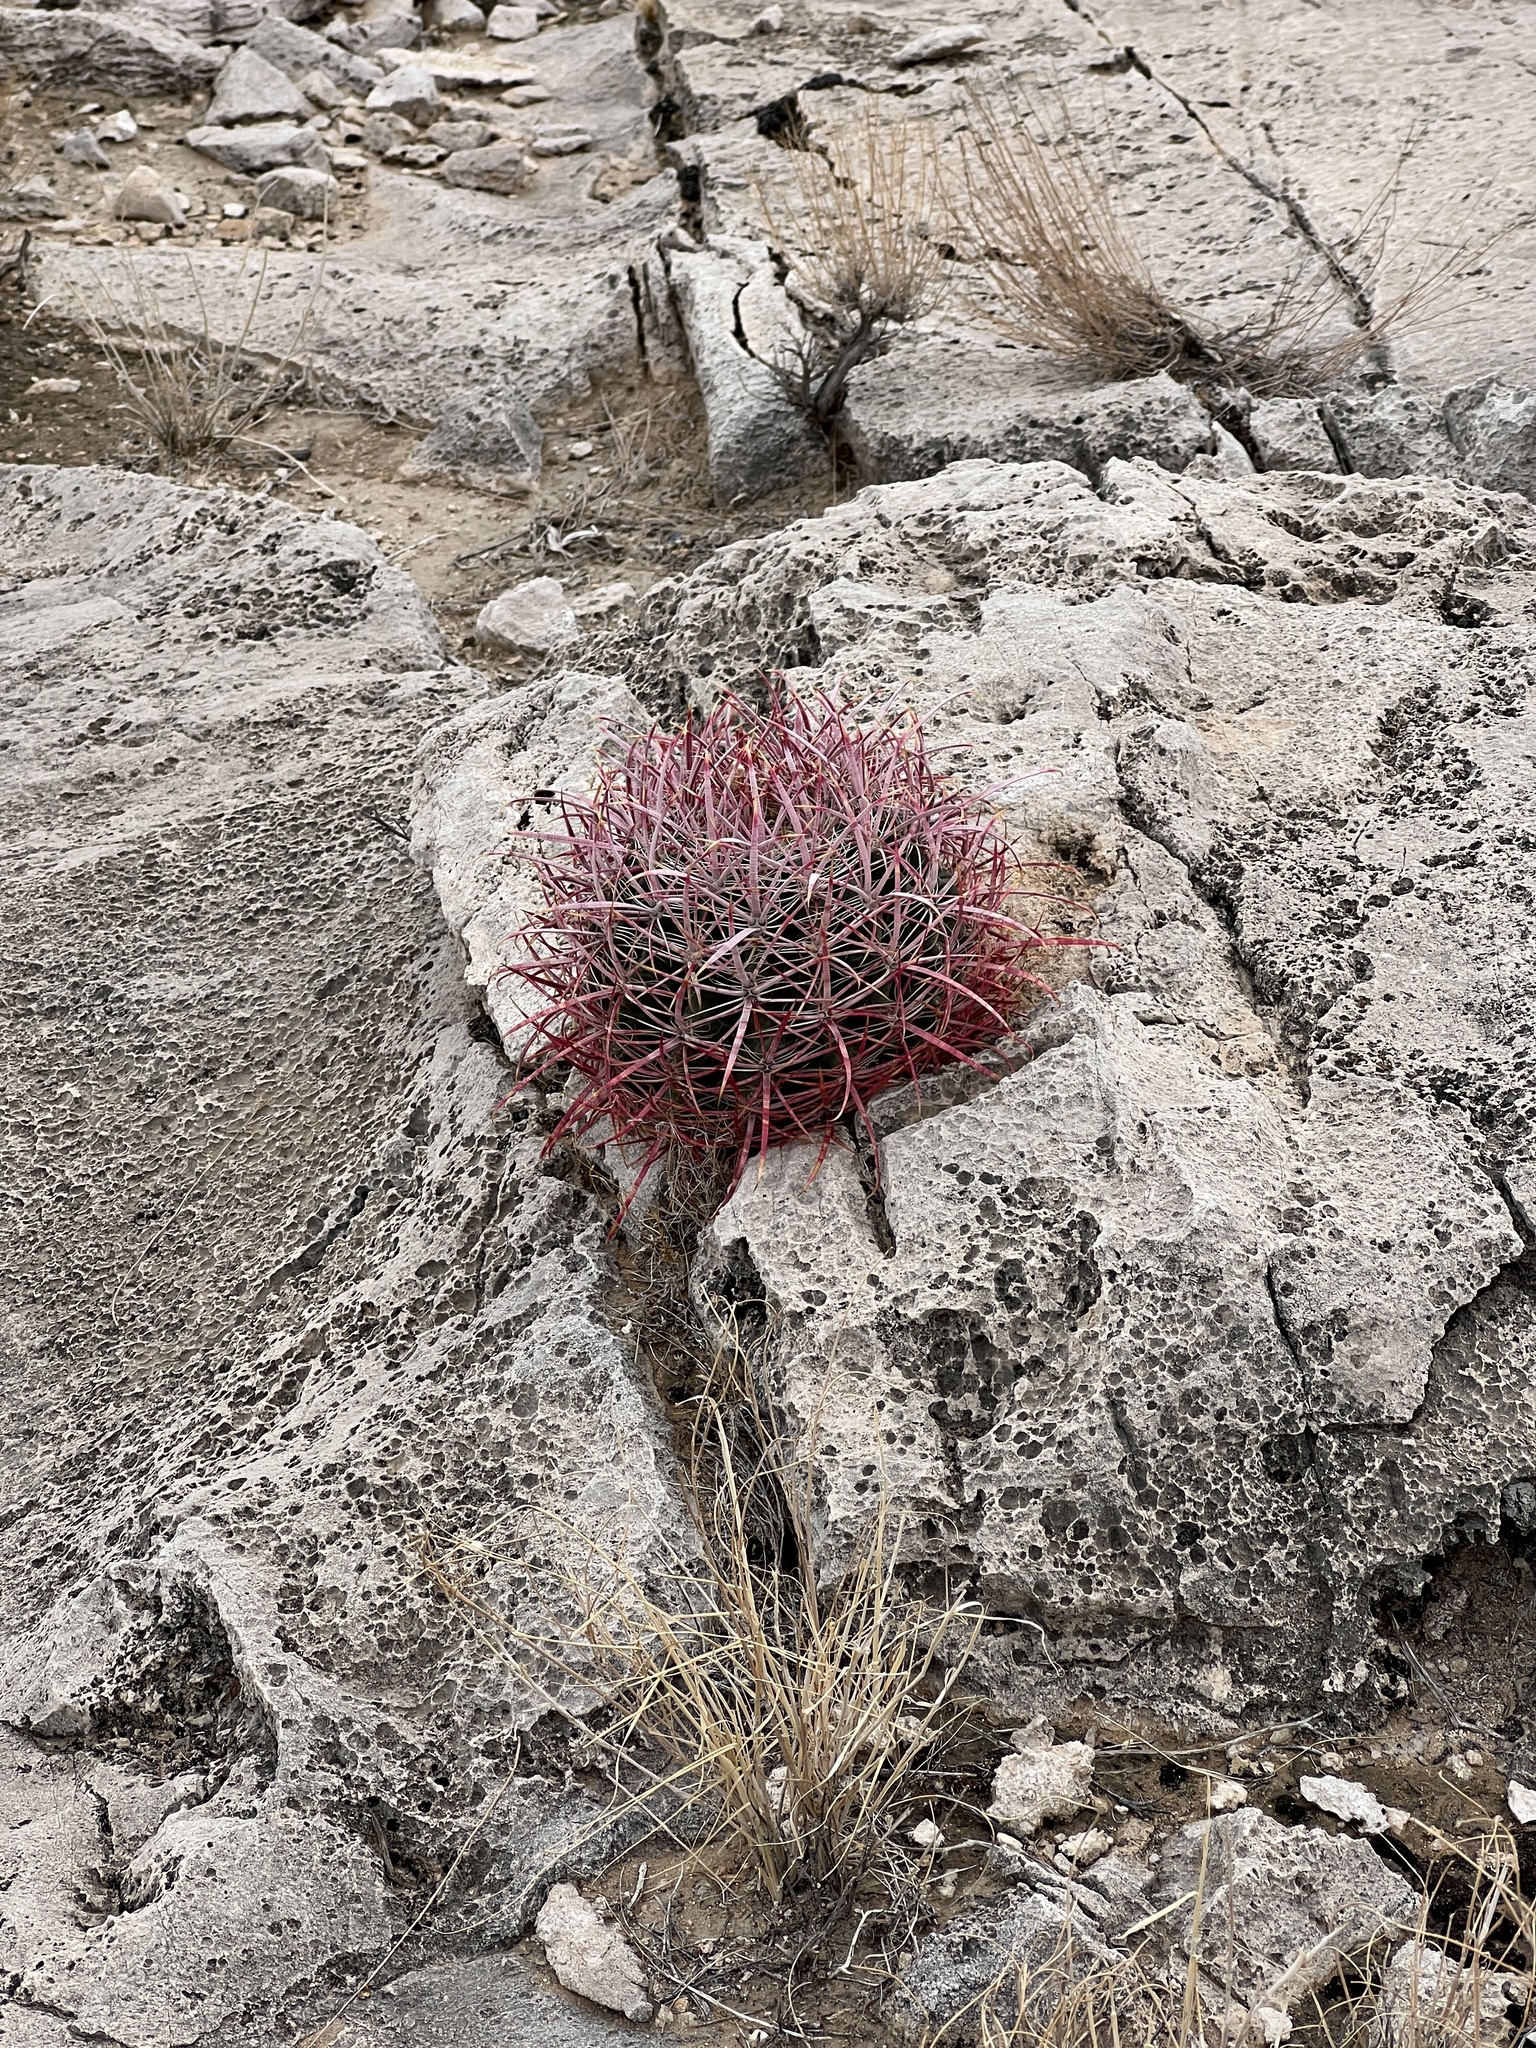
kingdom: Plantae
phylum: Tracheophyta
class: Magnoliopsida
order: Caryophyllales
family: Cactaceae
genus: Ferocactus
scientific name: Ferocactus cylindraceus
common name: California barrel cactus
